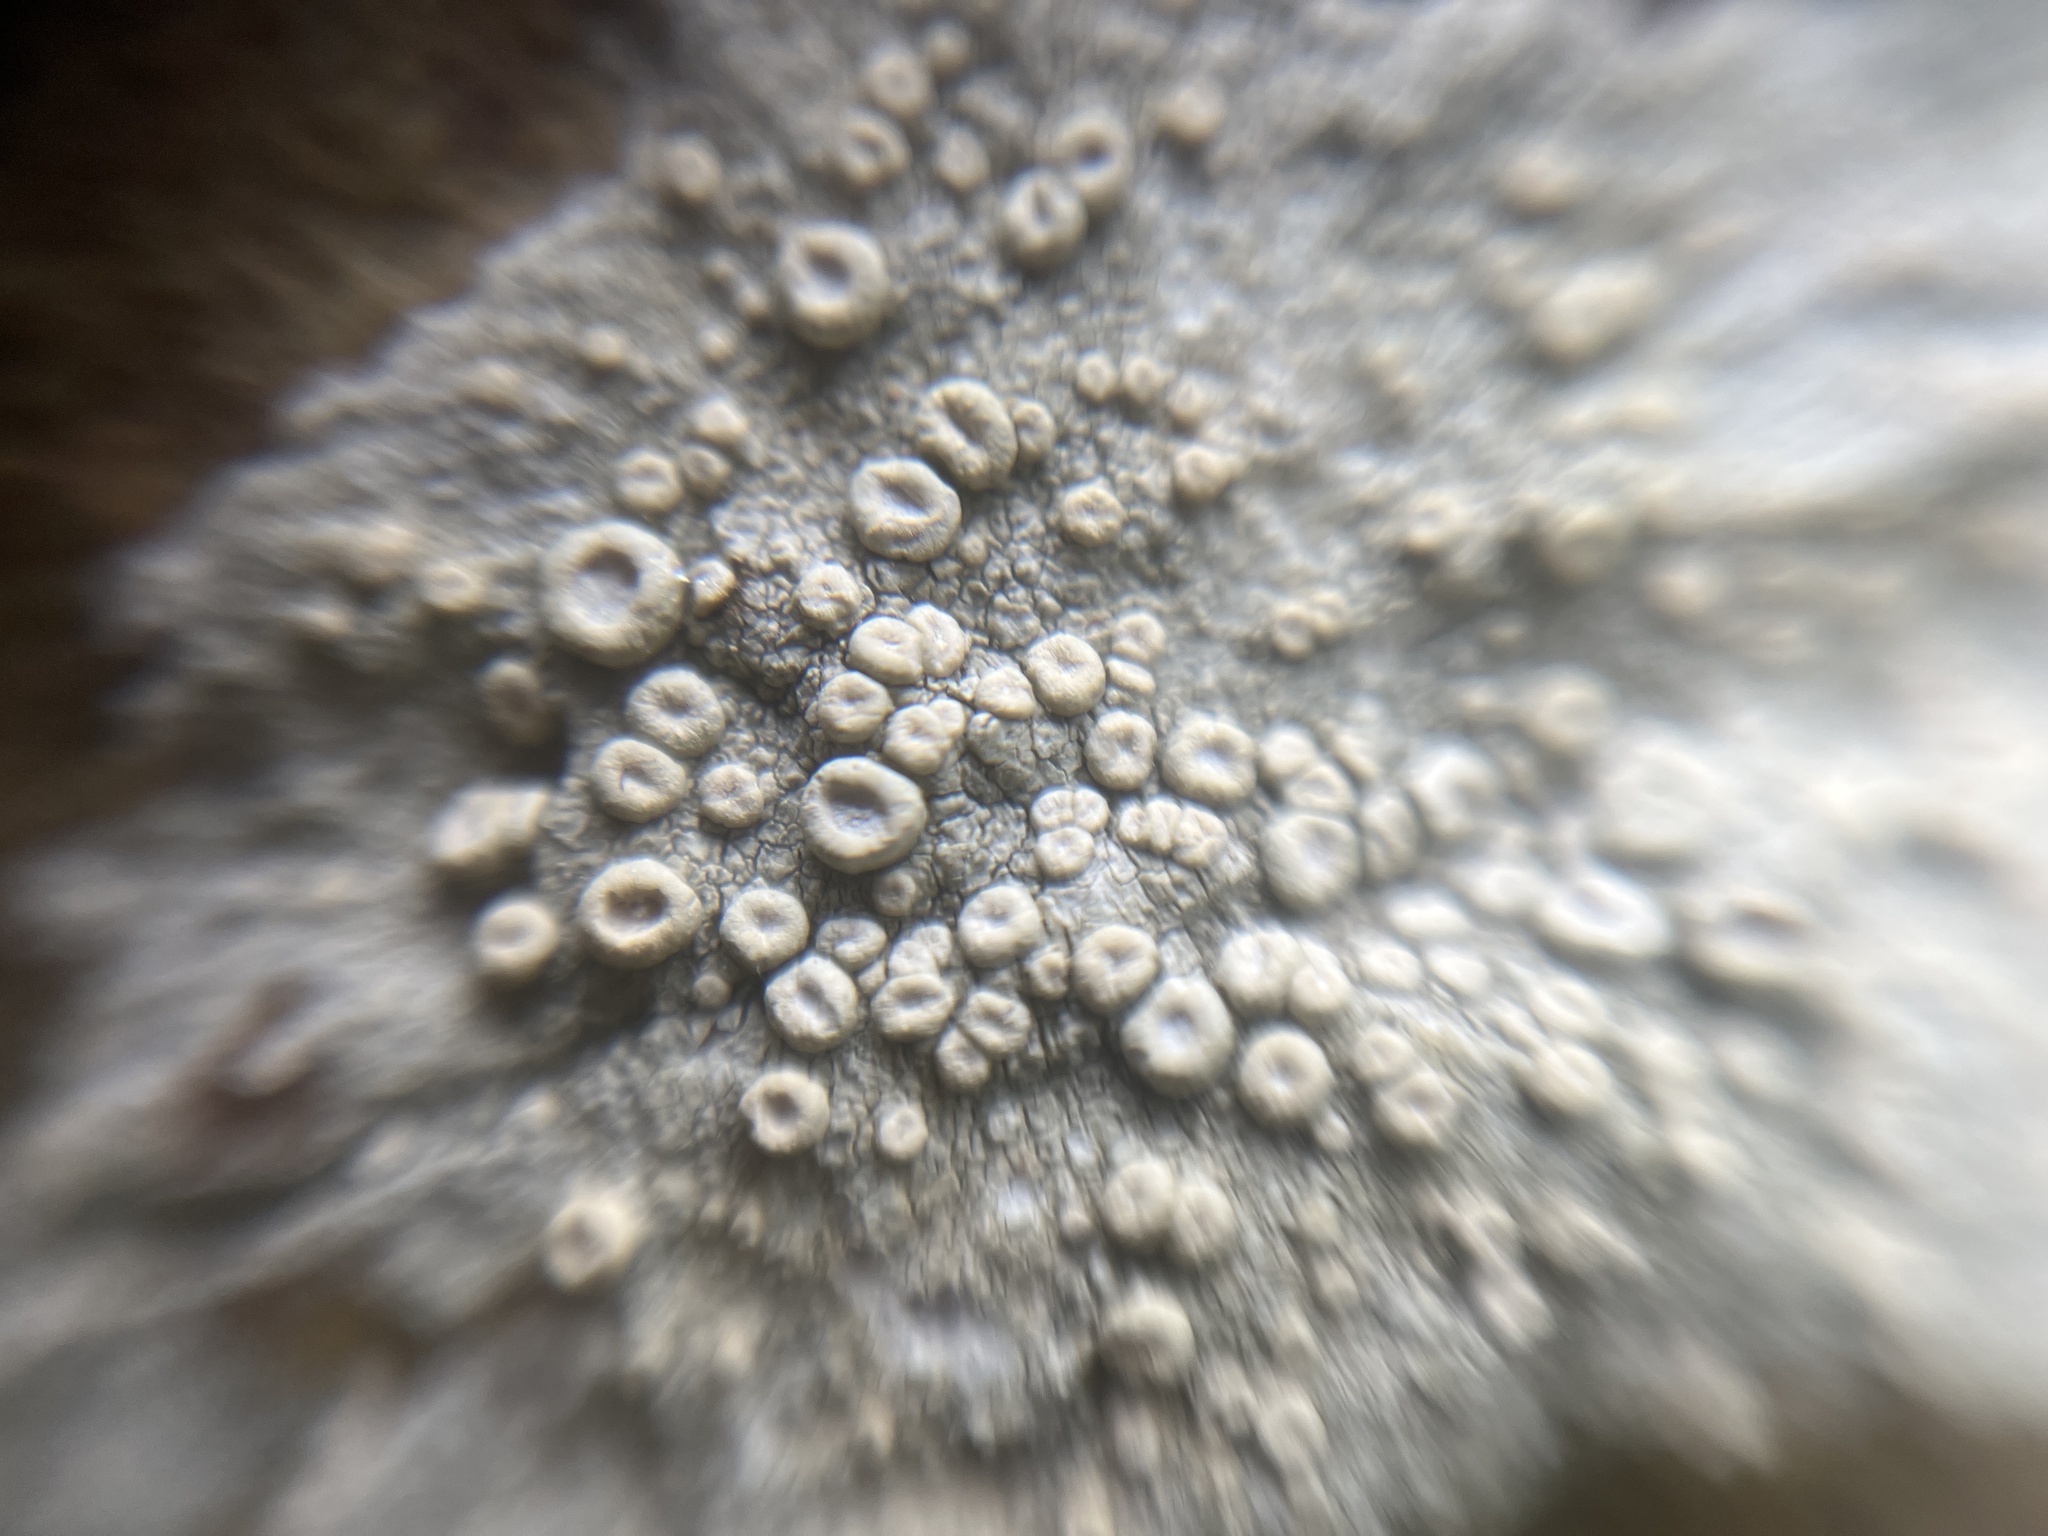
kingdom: Fungi
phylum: Ascomycota
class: Lecanoromycetes
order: Pertusariales
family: Ochrolechiaceae
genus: Ochrolechia
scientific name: Ochrolechia parella
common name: Crab's eye lichen
